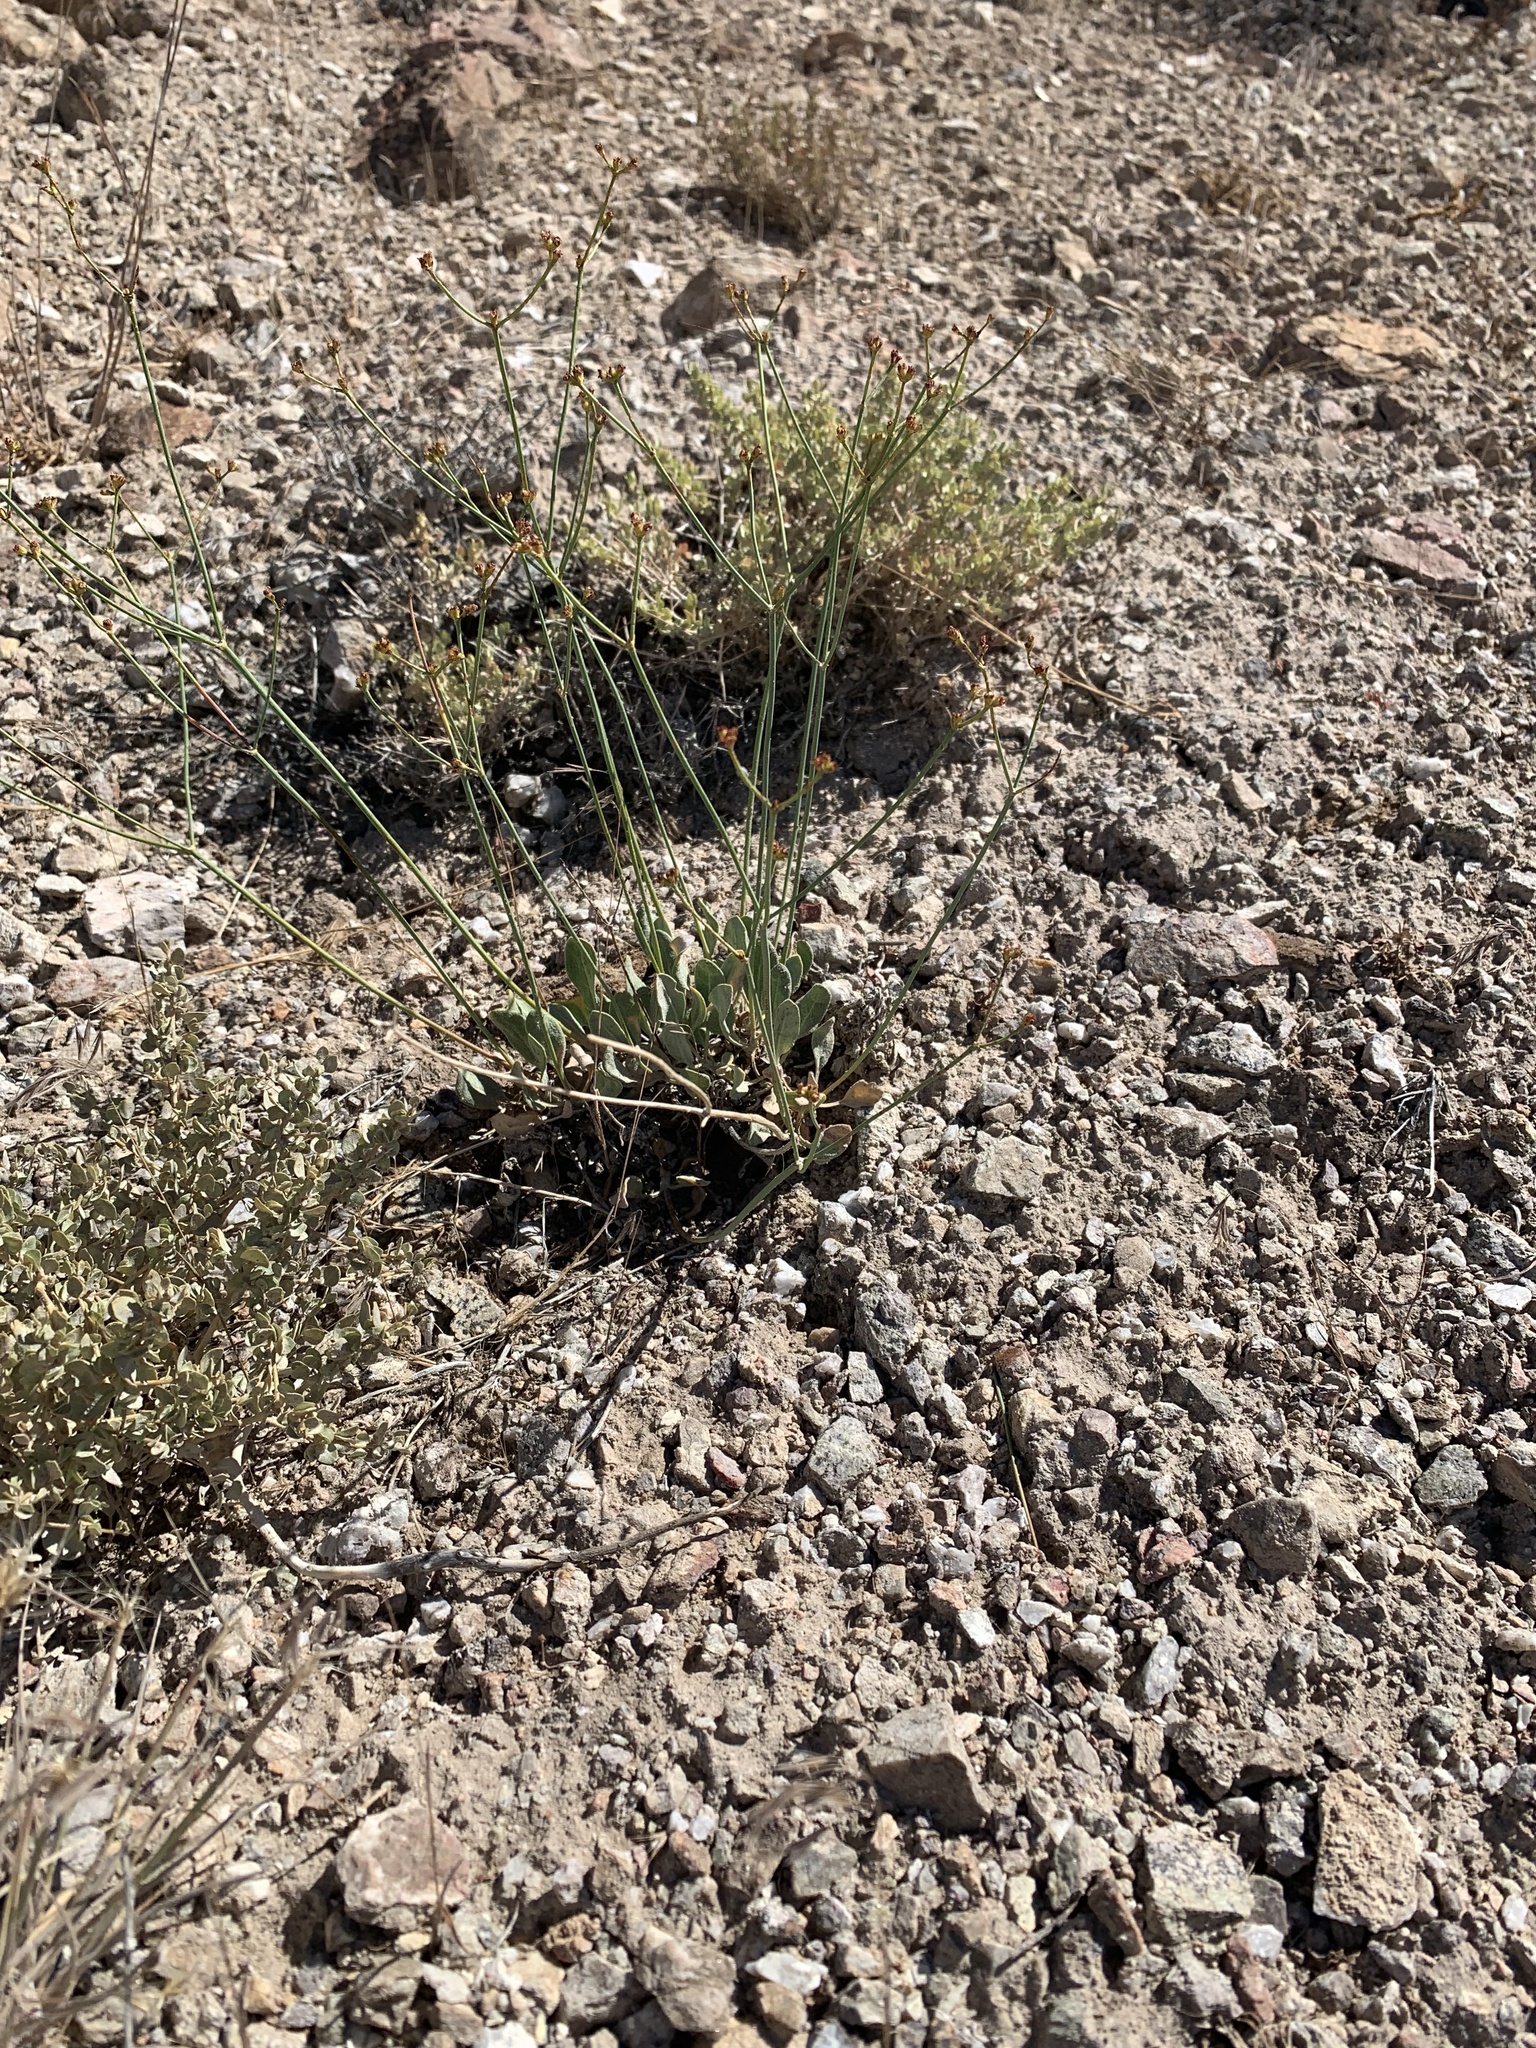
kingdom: Plantae
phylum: Tracheophyta
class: Magnoliopsida
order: Caryophyllales
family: Polygonaceae
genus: Eriogonum
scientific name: Eriogonum artificis
